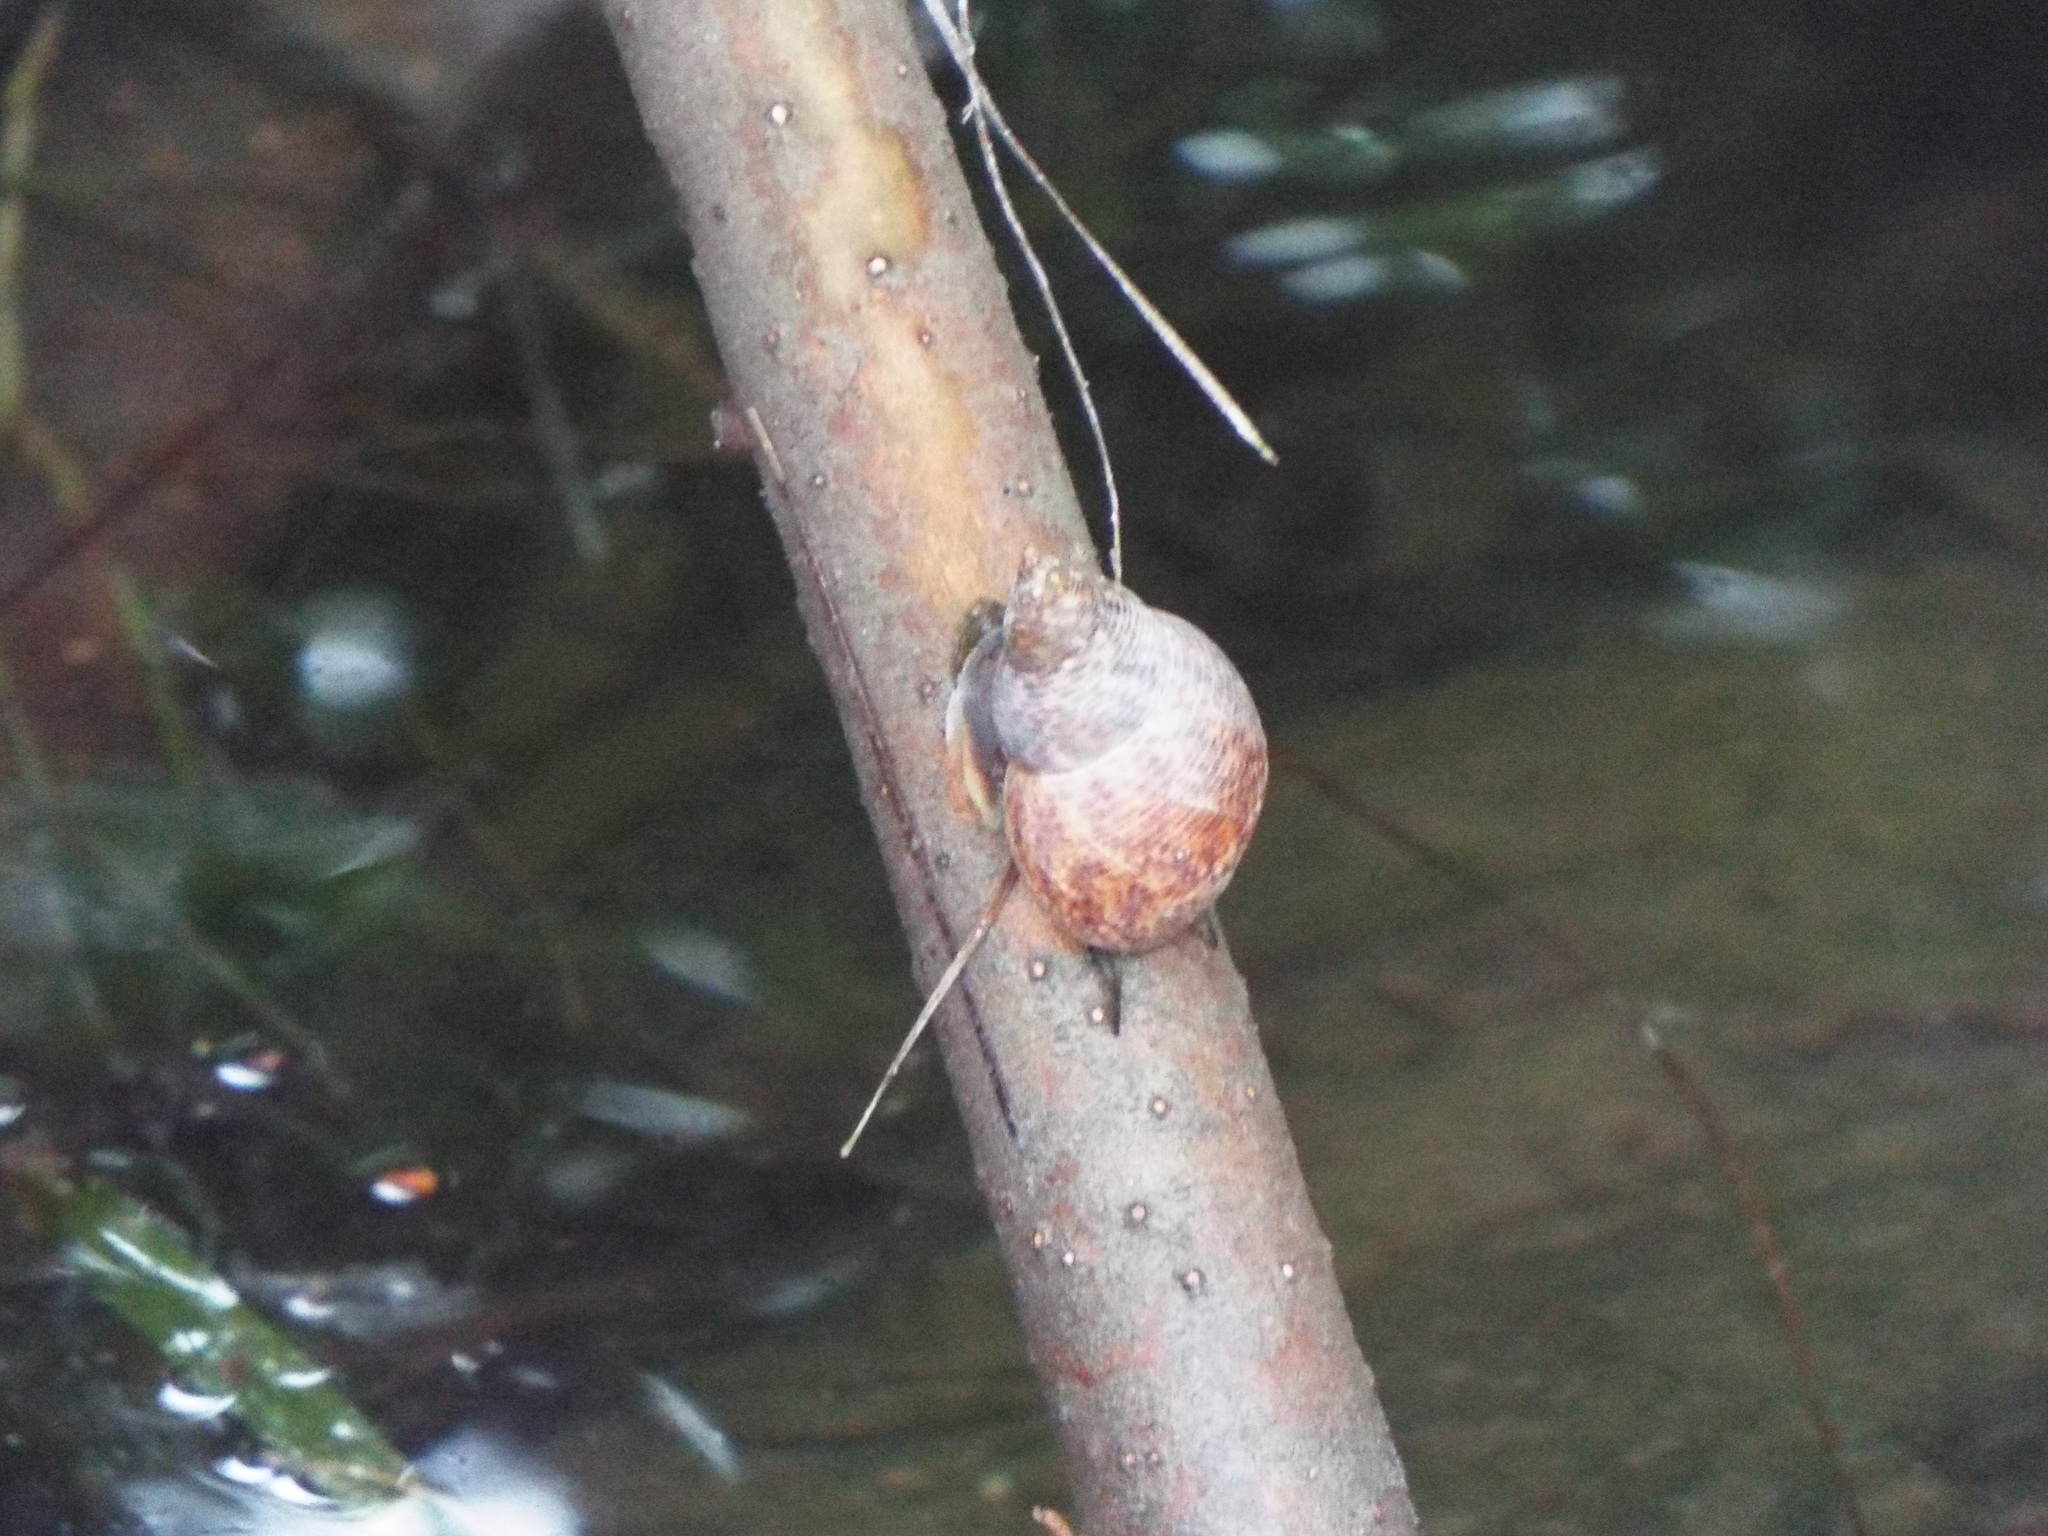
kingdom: Animalia
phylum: Mollusca
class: Gastropoda
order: Littorinimorpha
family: Littorinidae
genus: Littoraria
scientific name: Littoraria angulifera
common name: Mangrove periwinkle
